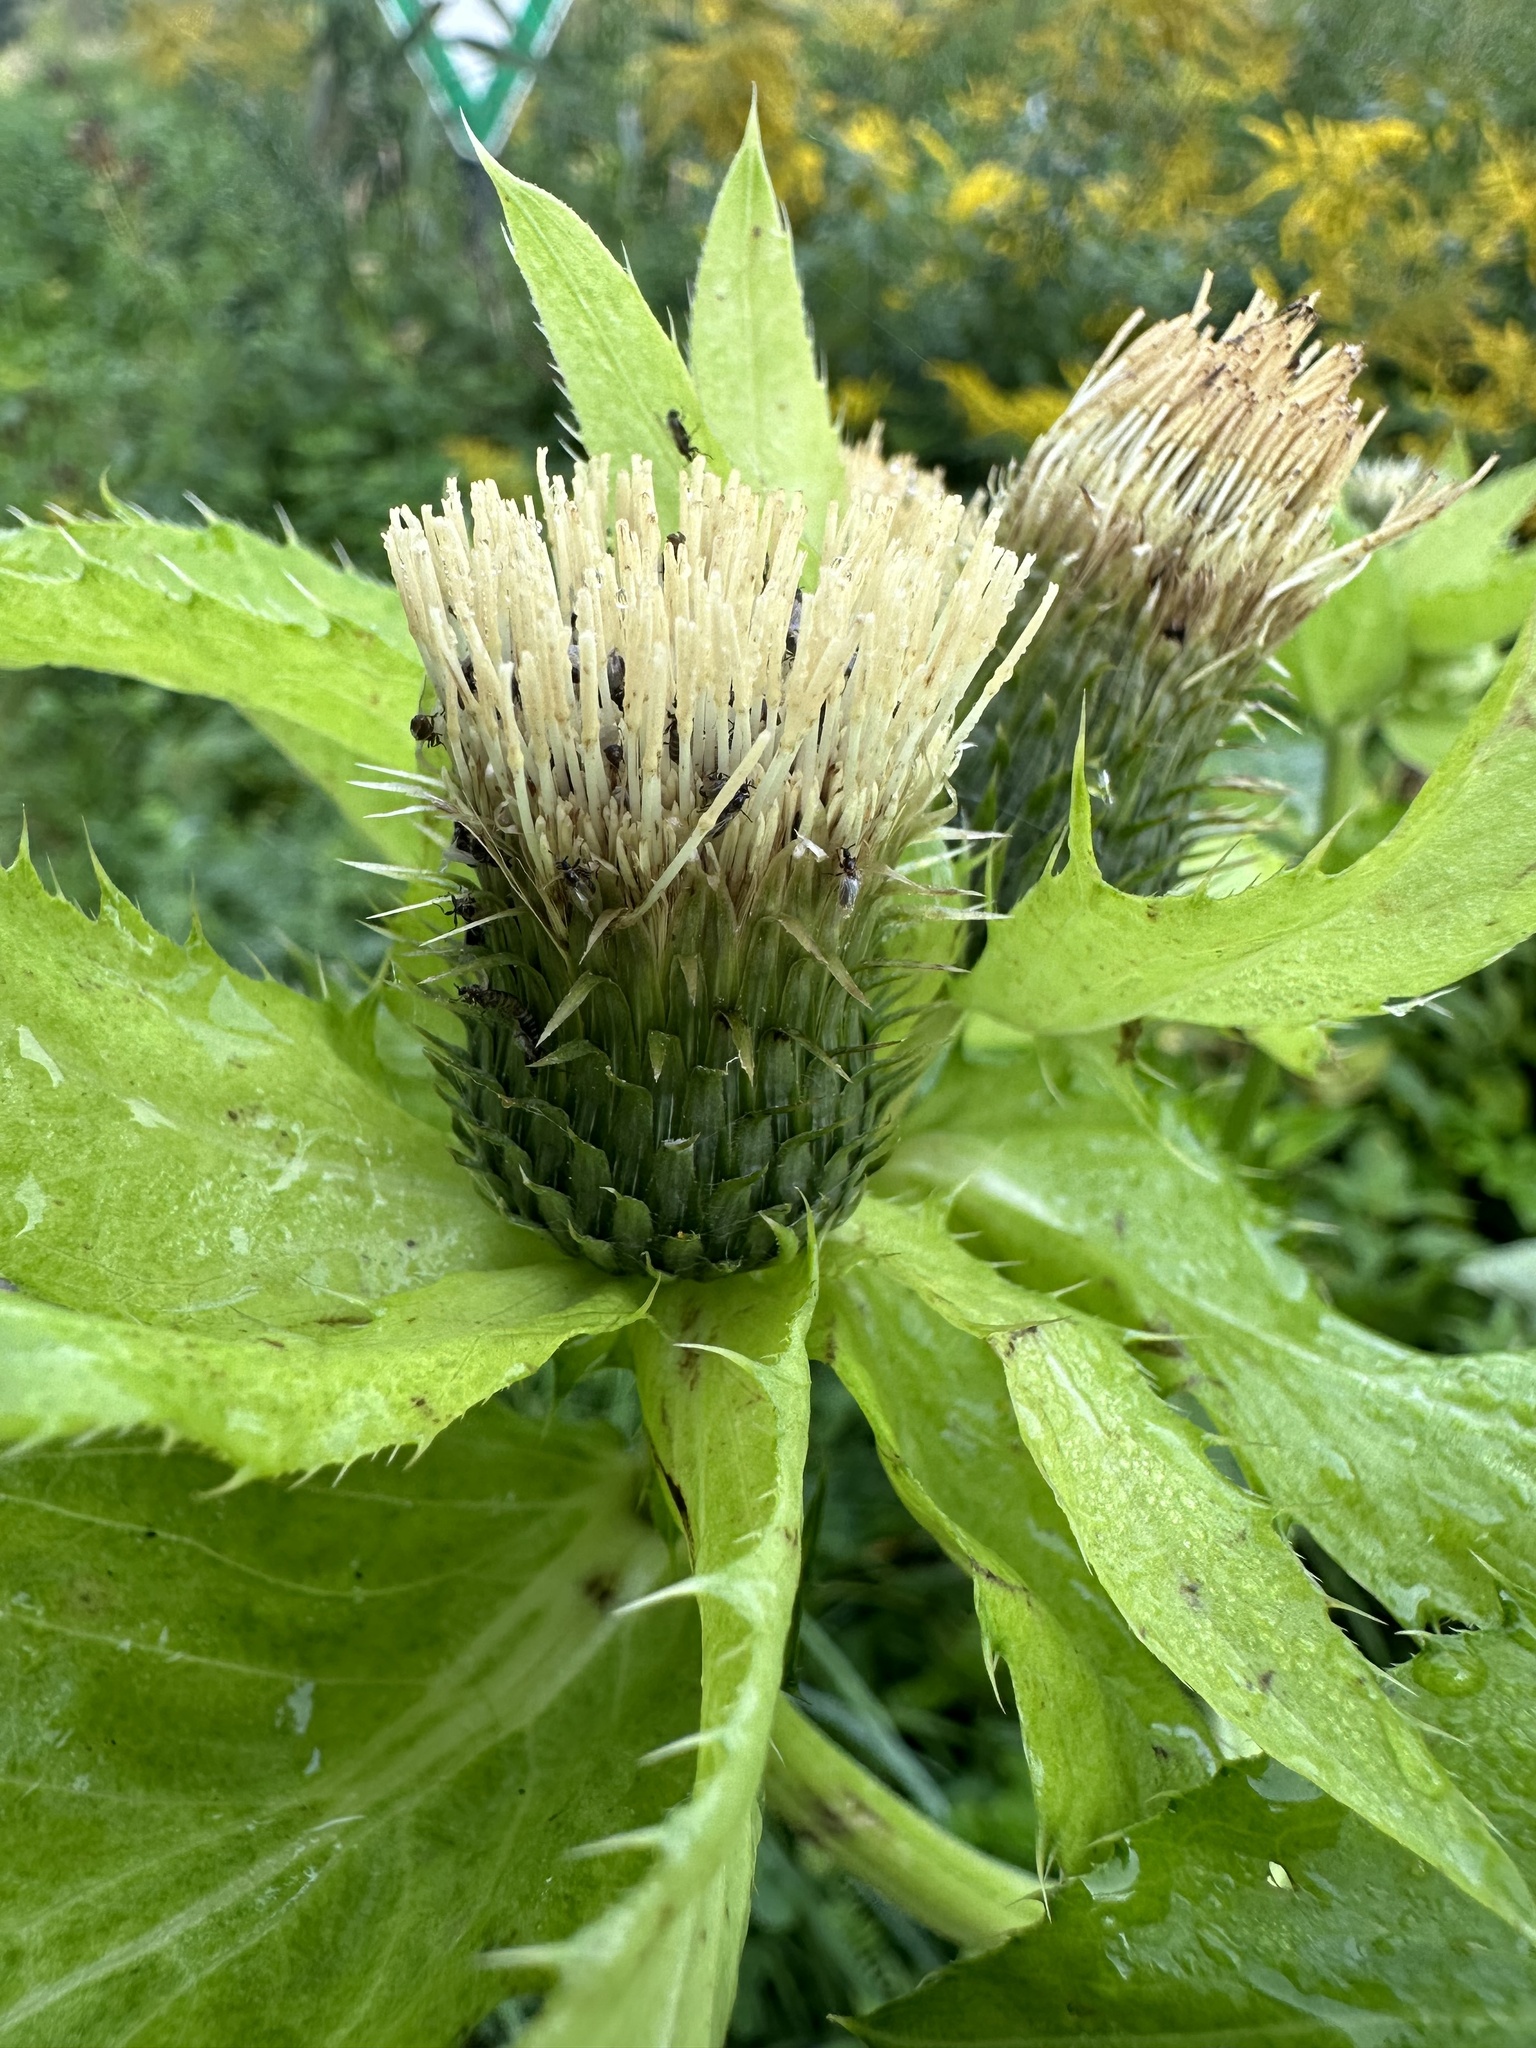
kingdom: Plantae
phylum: Tracheophyta
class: Magnoliopsida
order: Asterales
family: Asteraceae
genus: Cirsium
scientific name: Cirsium oleraceum
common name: Cabbage thistle
